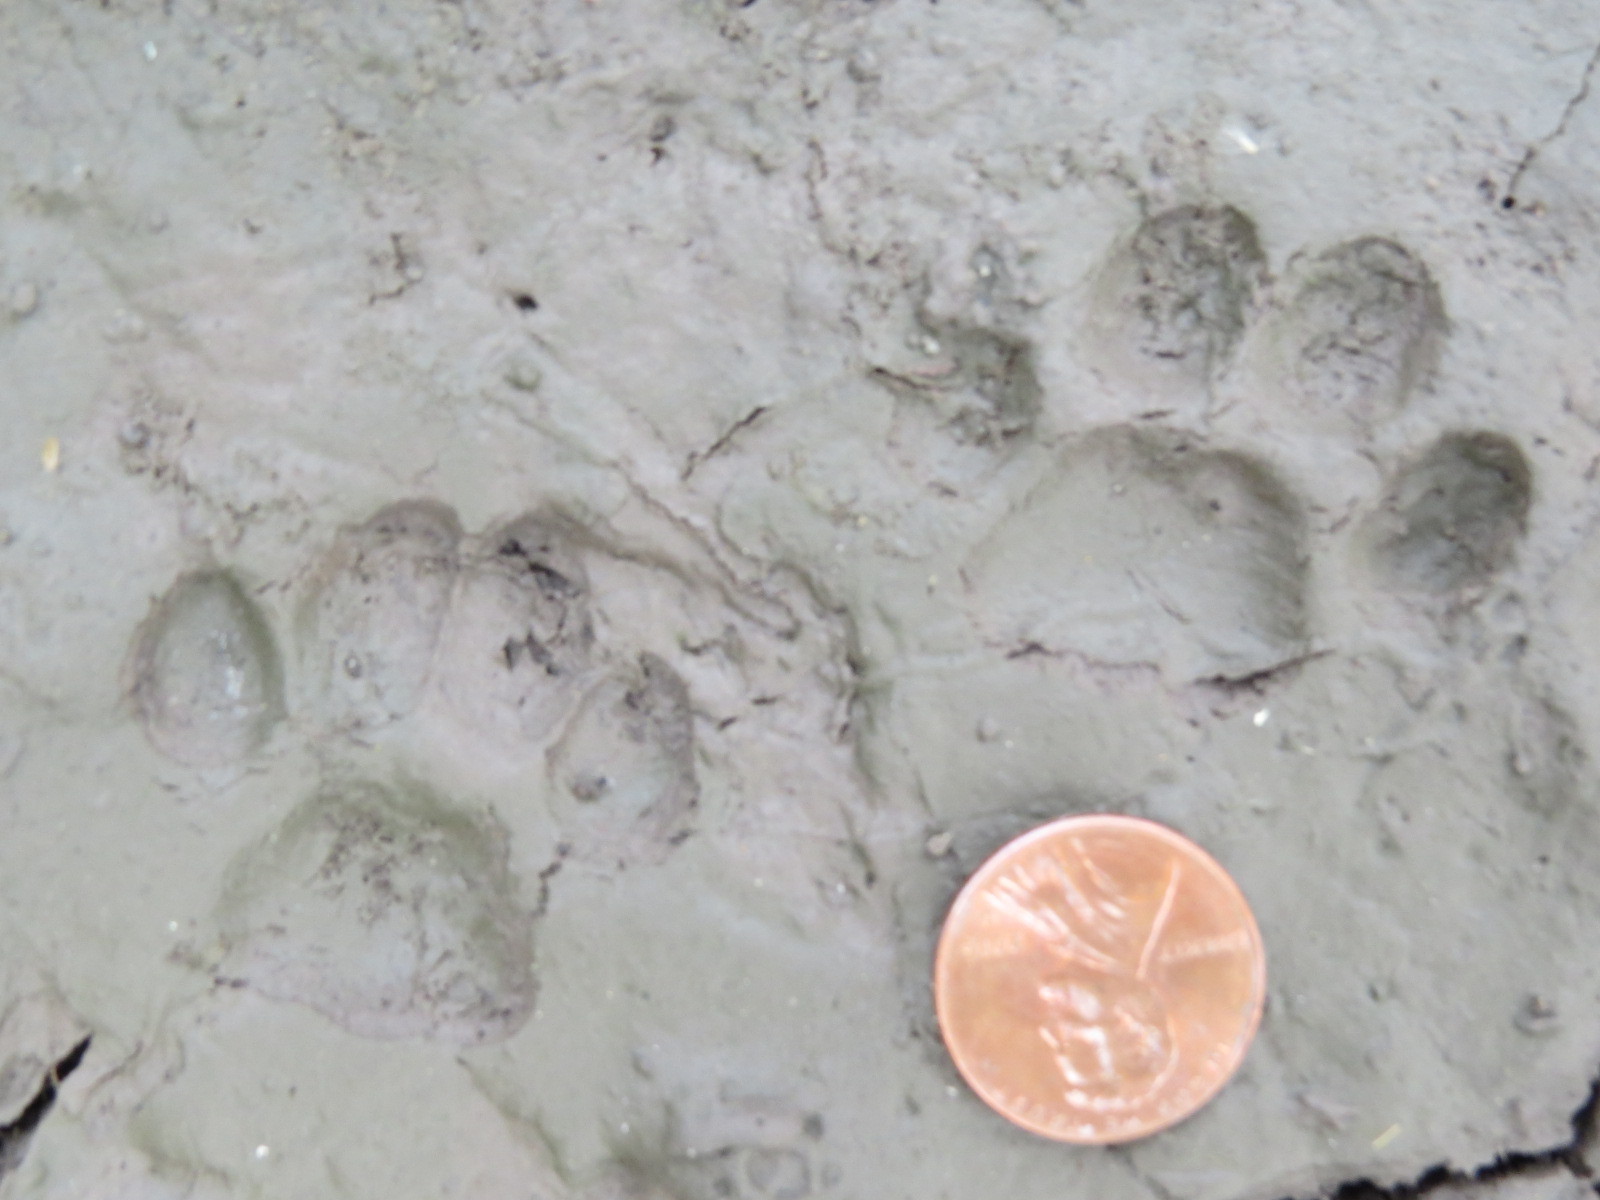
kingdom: Animalia
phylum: Chordata
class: Mammalia
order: Carnivora
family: Felidae
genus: Felis
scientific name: Felis catus
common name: Domestic cat
